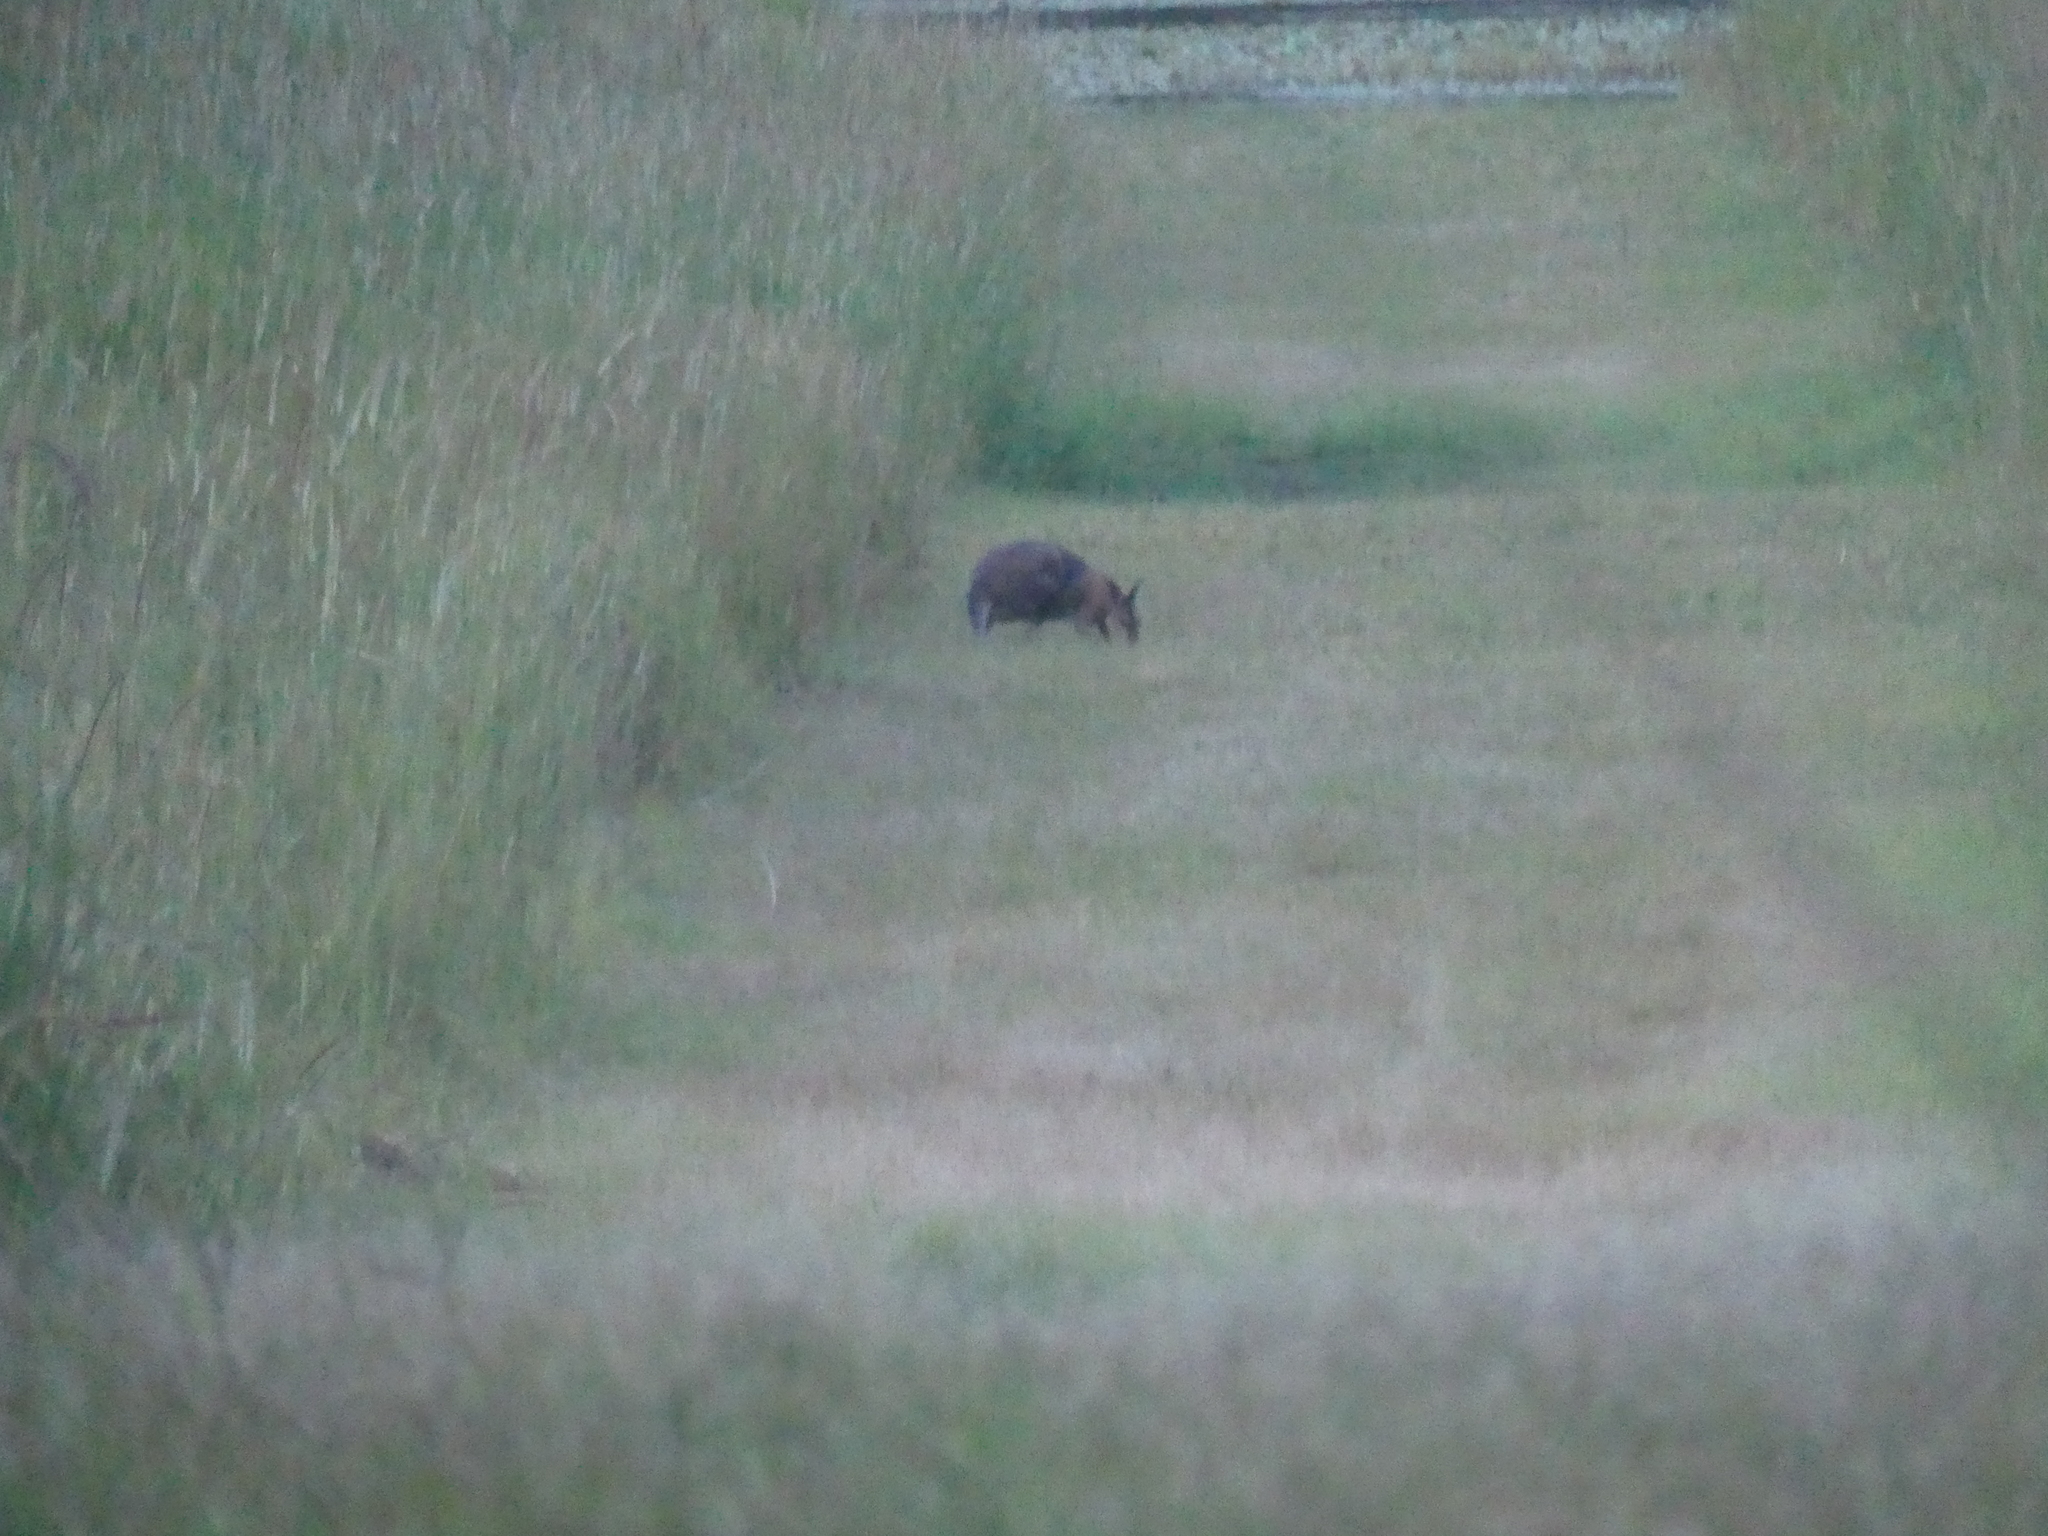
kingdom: Animalia
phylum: Chordata
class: Mammalia
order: Diprotodontia
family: Macropodidae
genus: Notamacropus
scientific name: Notamacropus rufogriseus
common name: Red-necked wallaby
